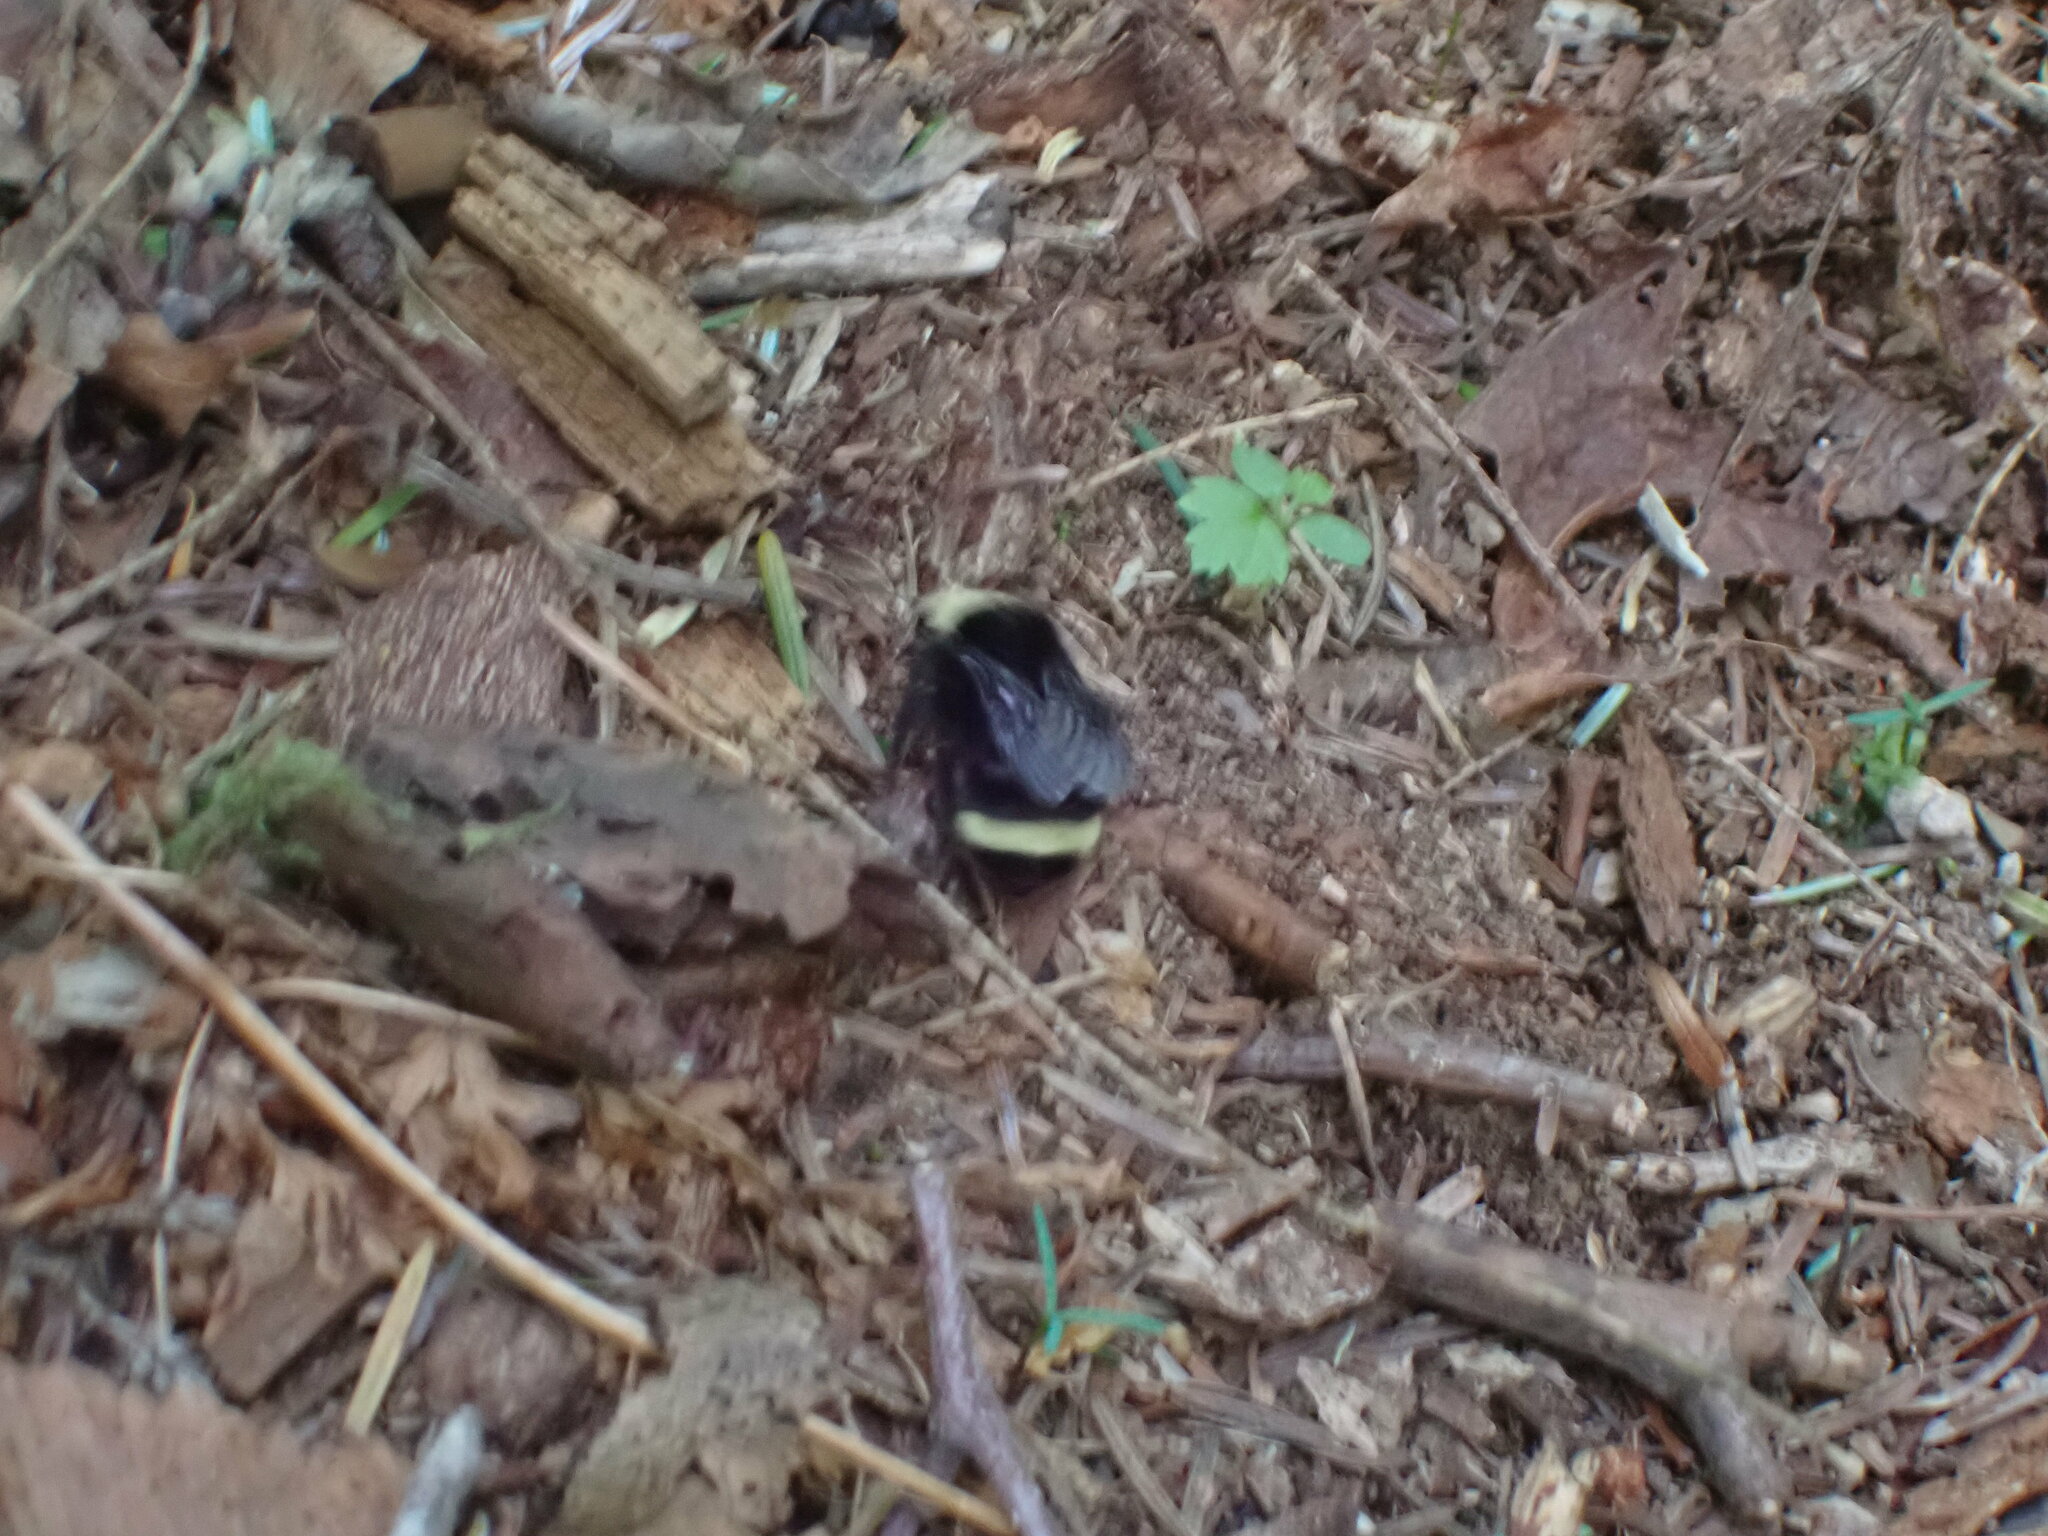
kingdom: Animalia
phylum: Arthropoda
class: Insecta
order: Hymenoptera
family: Apidae
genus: Bombus
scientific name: Bombus vosnesenskii
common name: Vosnesensky bumble bee
